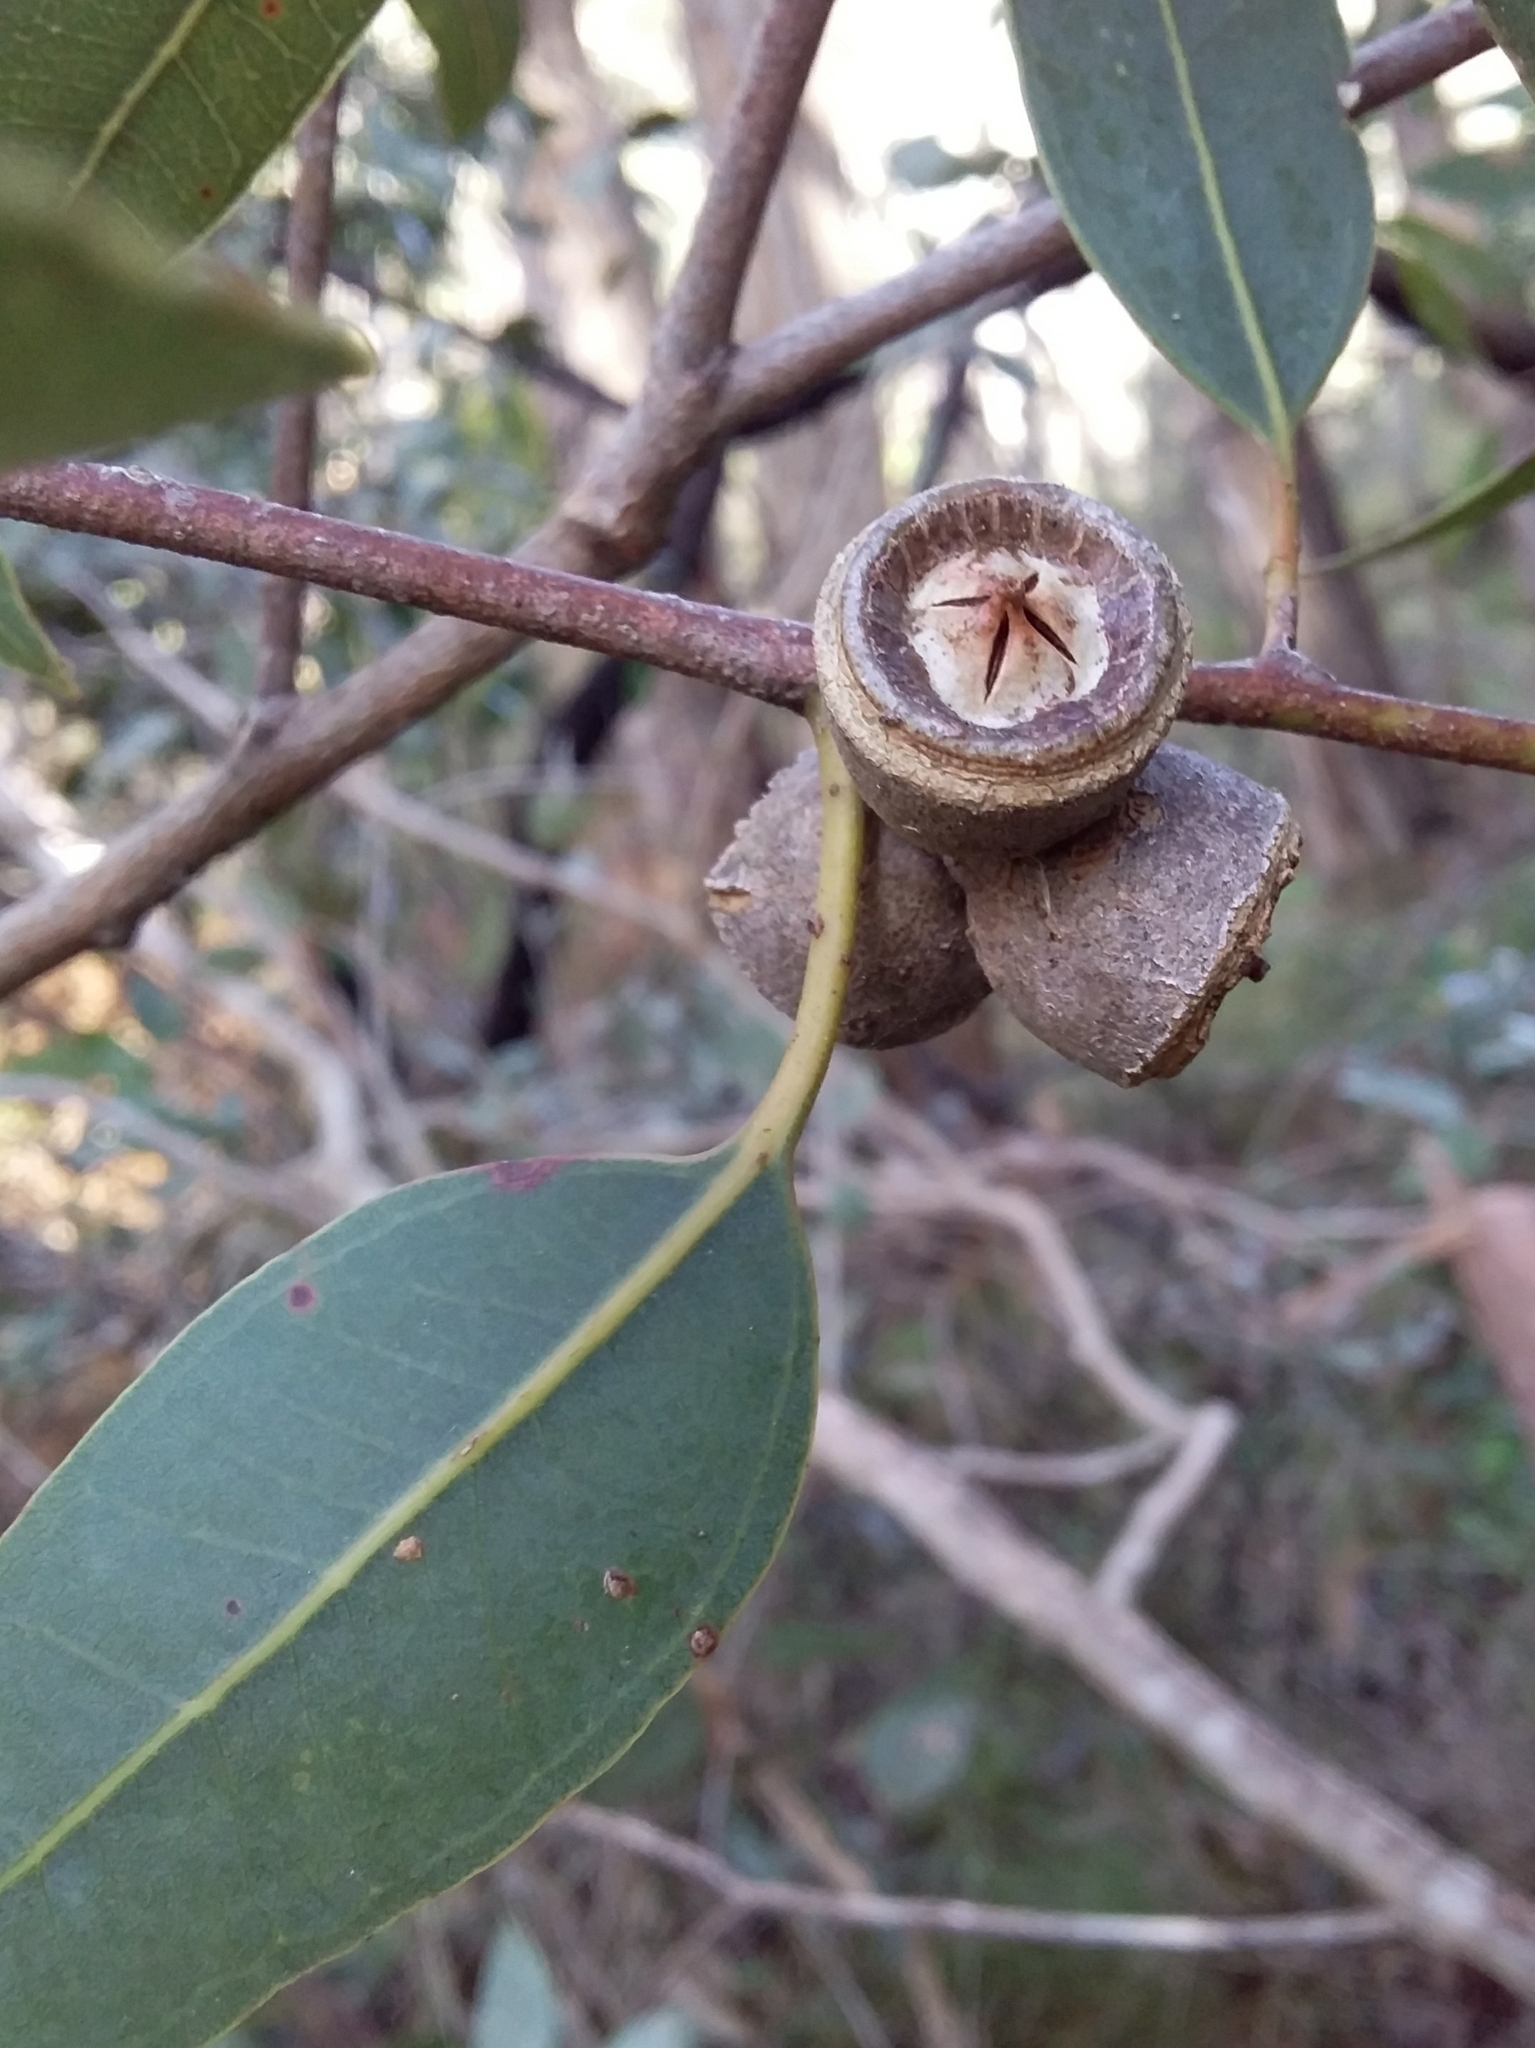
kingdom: Plantae
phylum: Tracheophyta
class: Magnoliopsida
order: Myrtales
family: Myrtaceae
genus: Eucalyptus
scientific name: Eucalyptus cosmophylla
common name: Bog-gum
